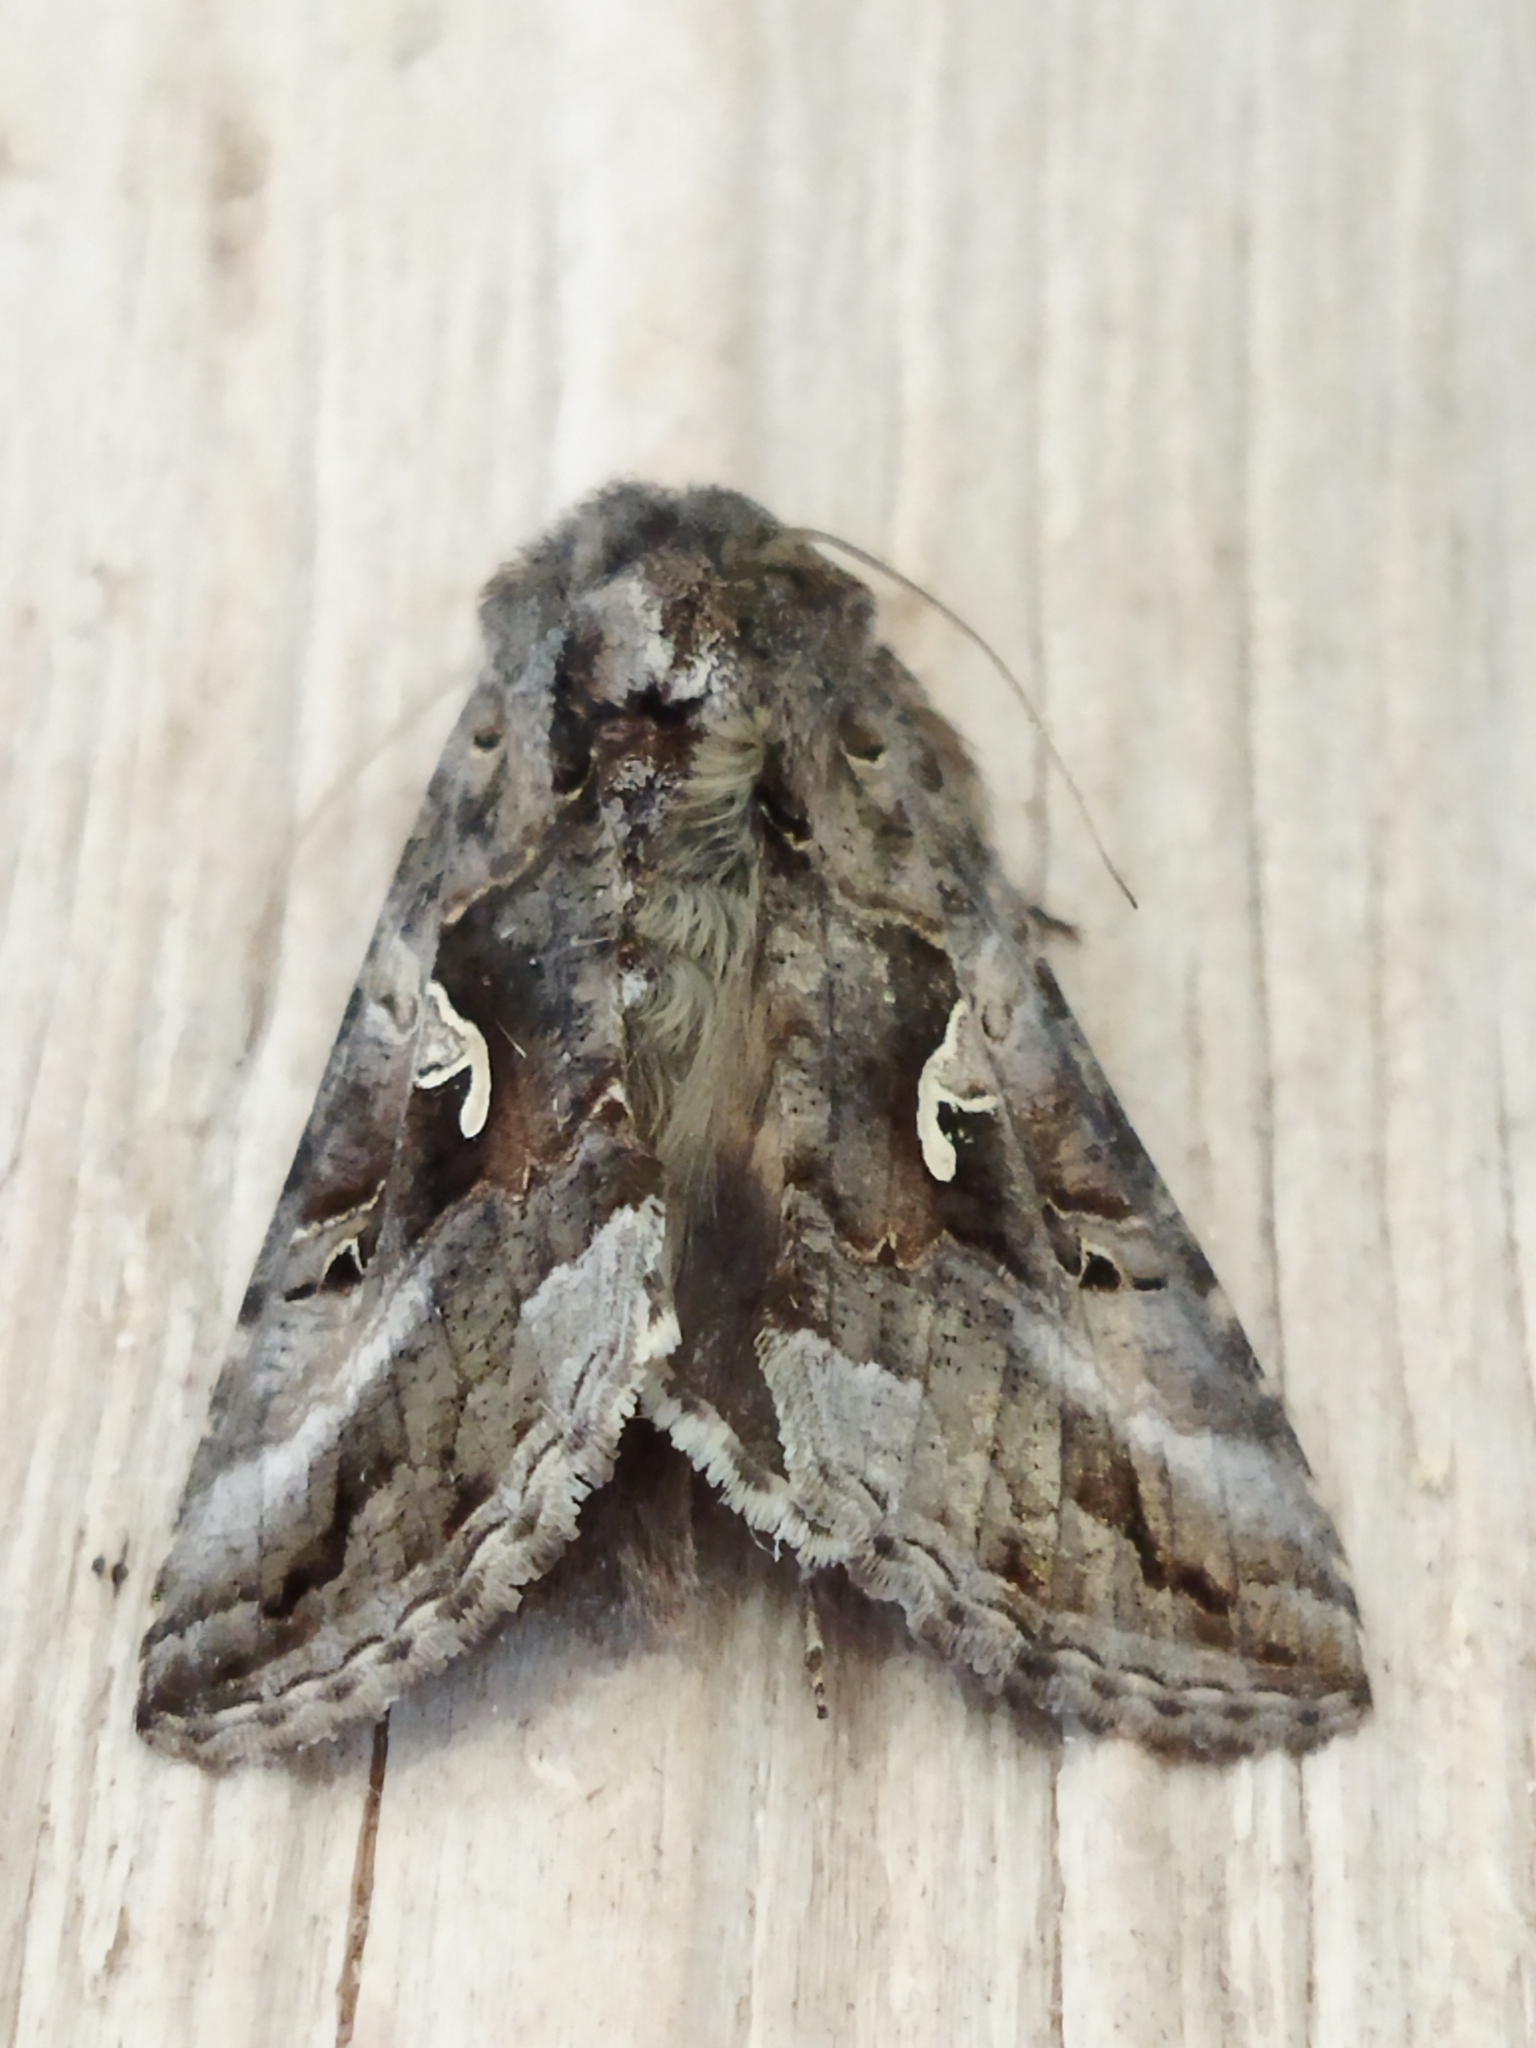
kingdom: Animalia
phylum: Arthropoda
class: Insecta
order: Lepidoptera
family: Noctuidae
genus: Autographa
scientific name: Autographa gamma
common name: Silver y
